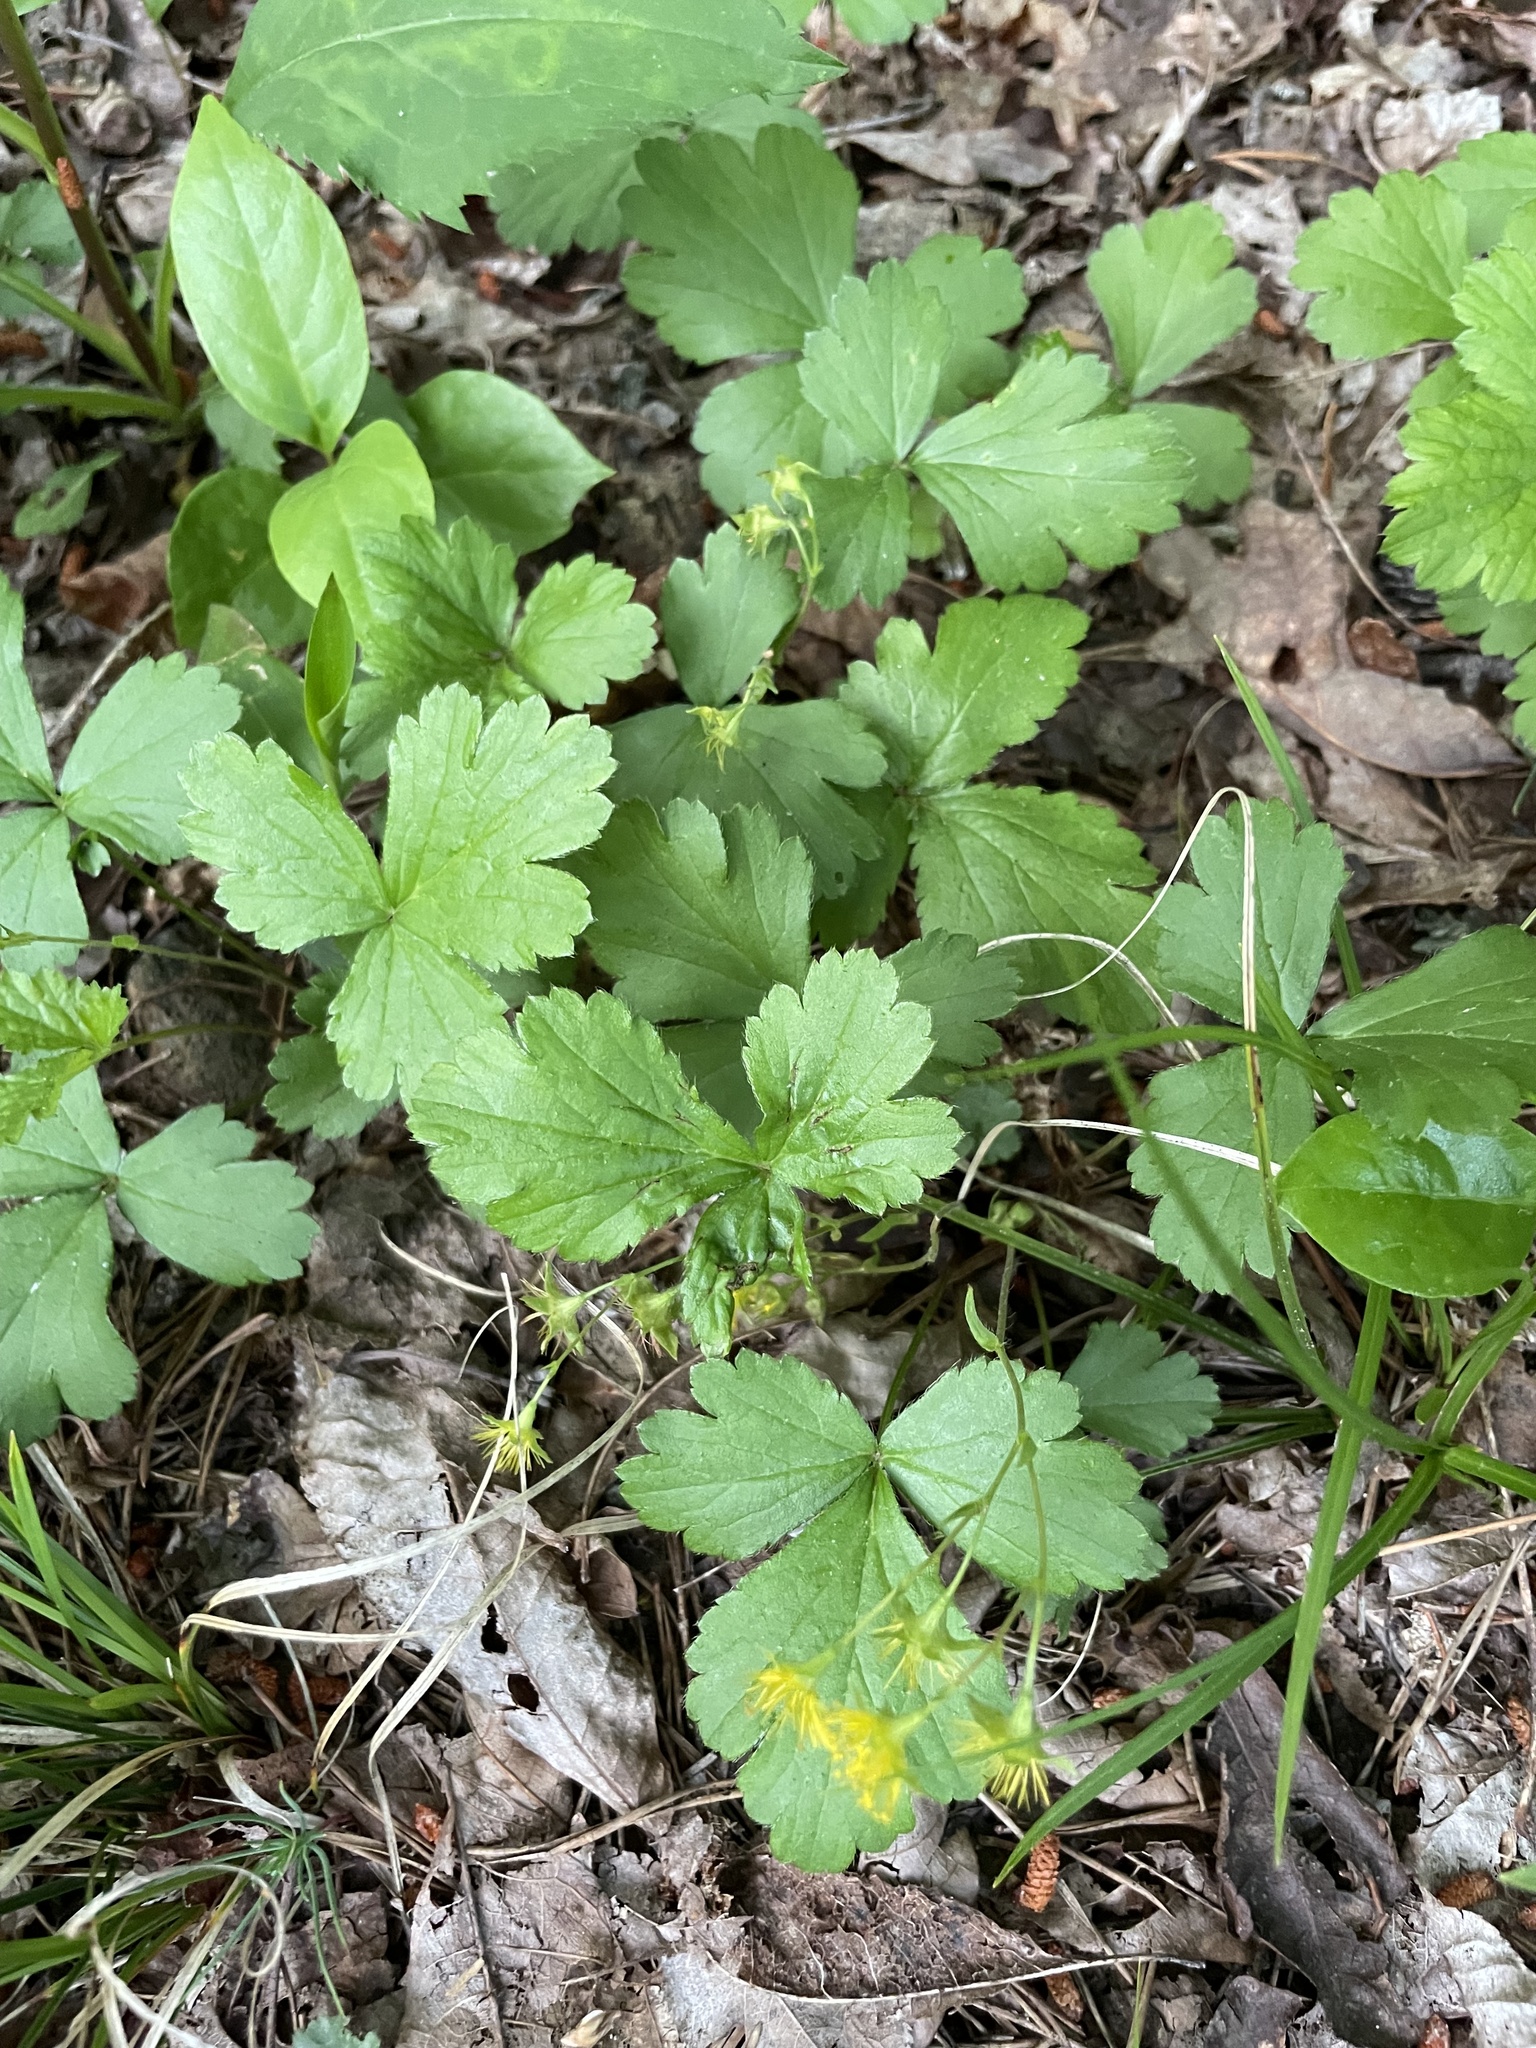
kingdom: Plantae
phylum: Tracheophyta
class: Magnoliopsida
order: Rosales
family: Rosaceae
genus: Geum
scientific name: Geum lobatum
